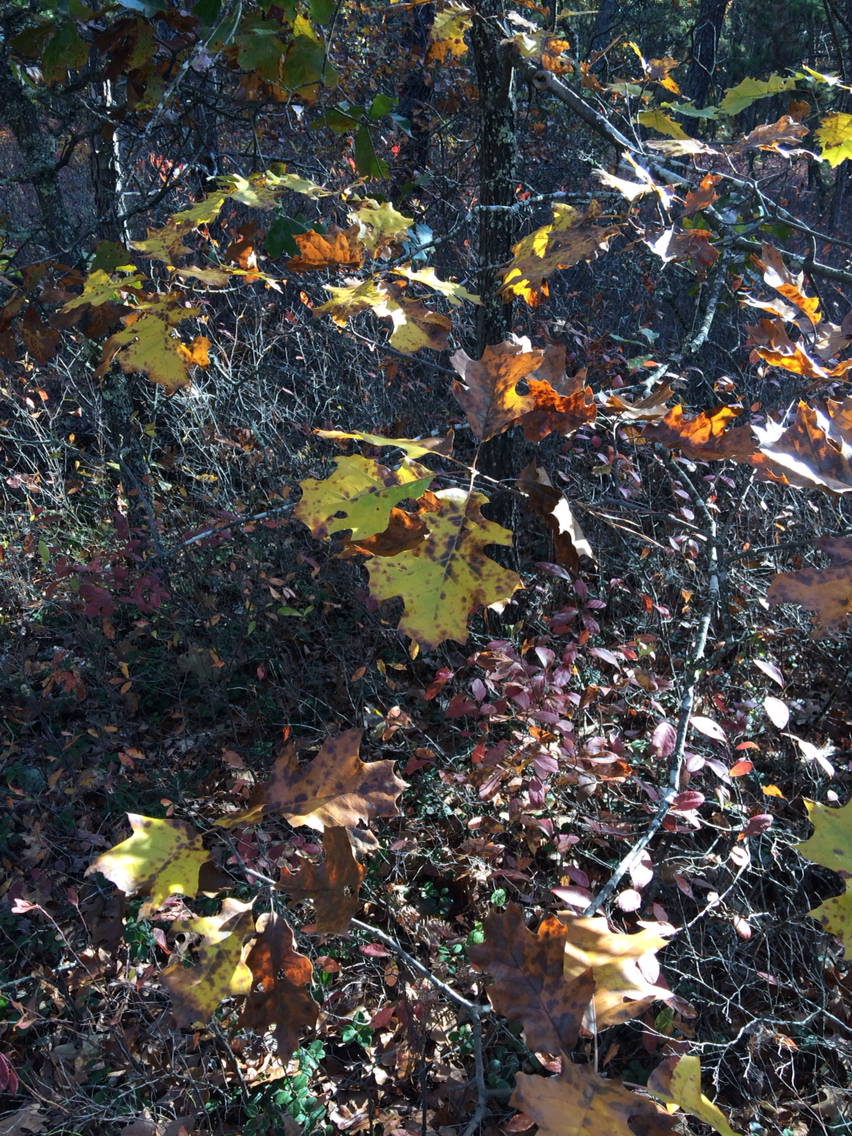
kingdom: Plantae
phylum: Tracheophyta
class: Magnoliopsida
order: Fagales
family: Fagaceae
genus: Quercus
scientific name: Quercus velutina
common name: Black oak
